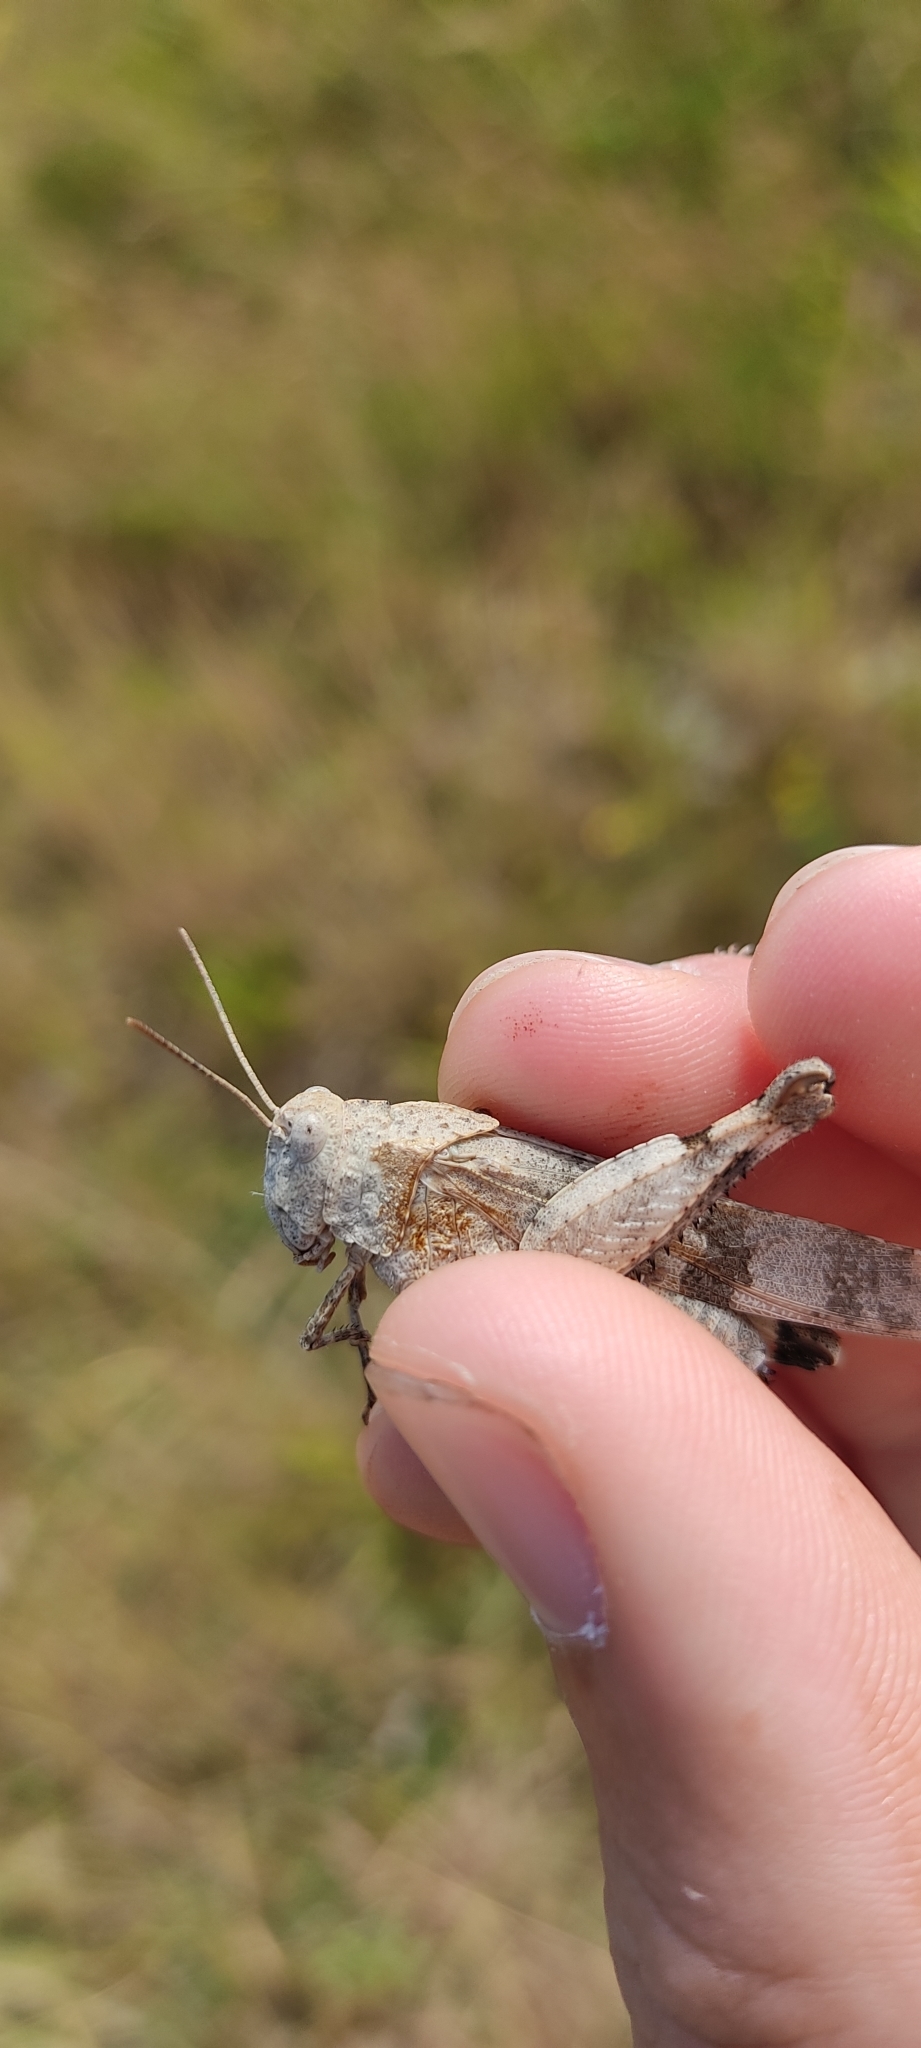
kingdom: Animalia
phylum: Arthropoda
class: Insecta
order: Orthoptera
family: Acrididae
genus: Oedipoda
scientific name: Oedipoda caerulescens
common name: Blue-winged grasshopper
